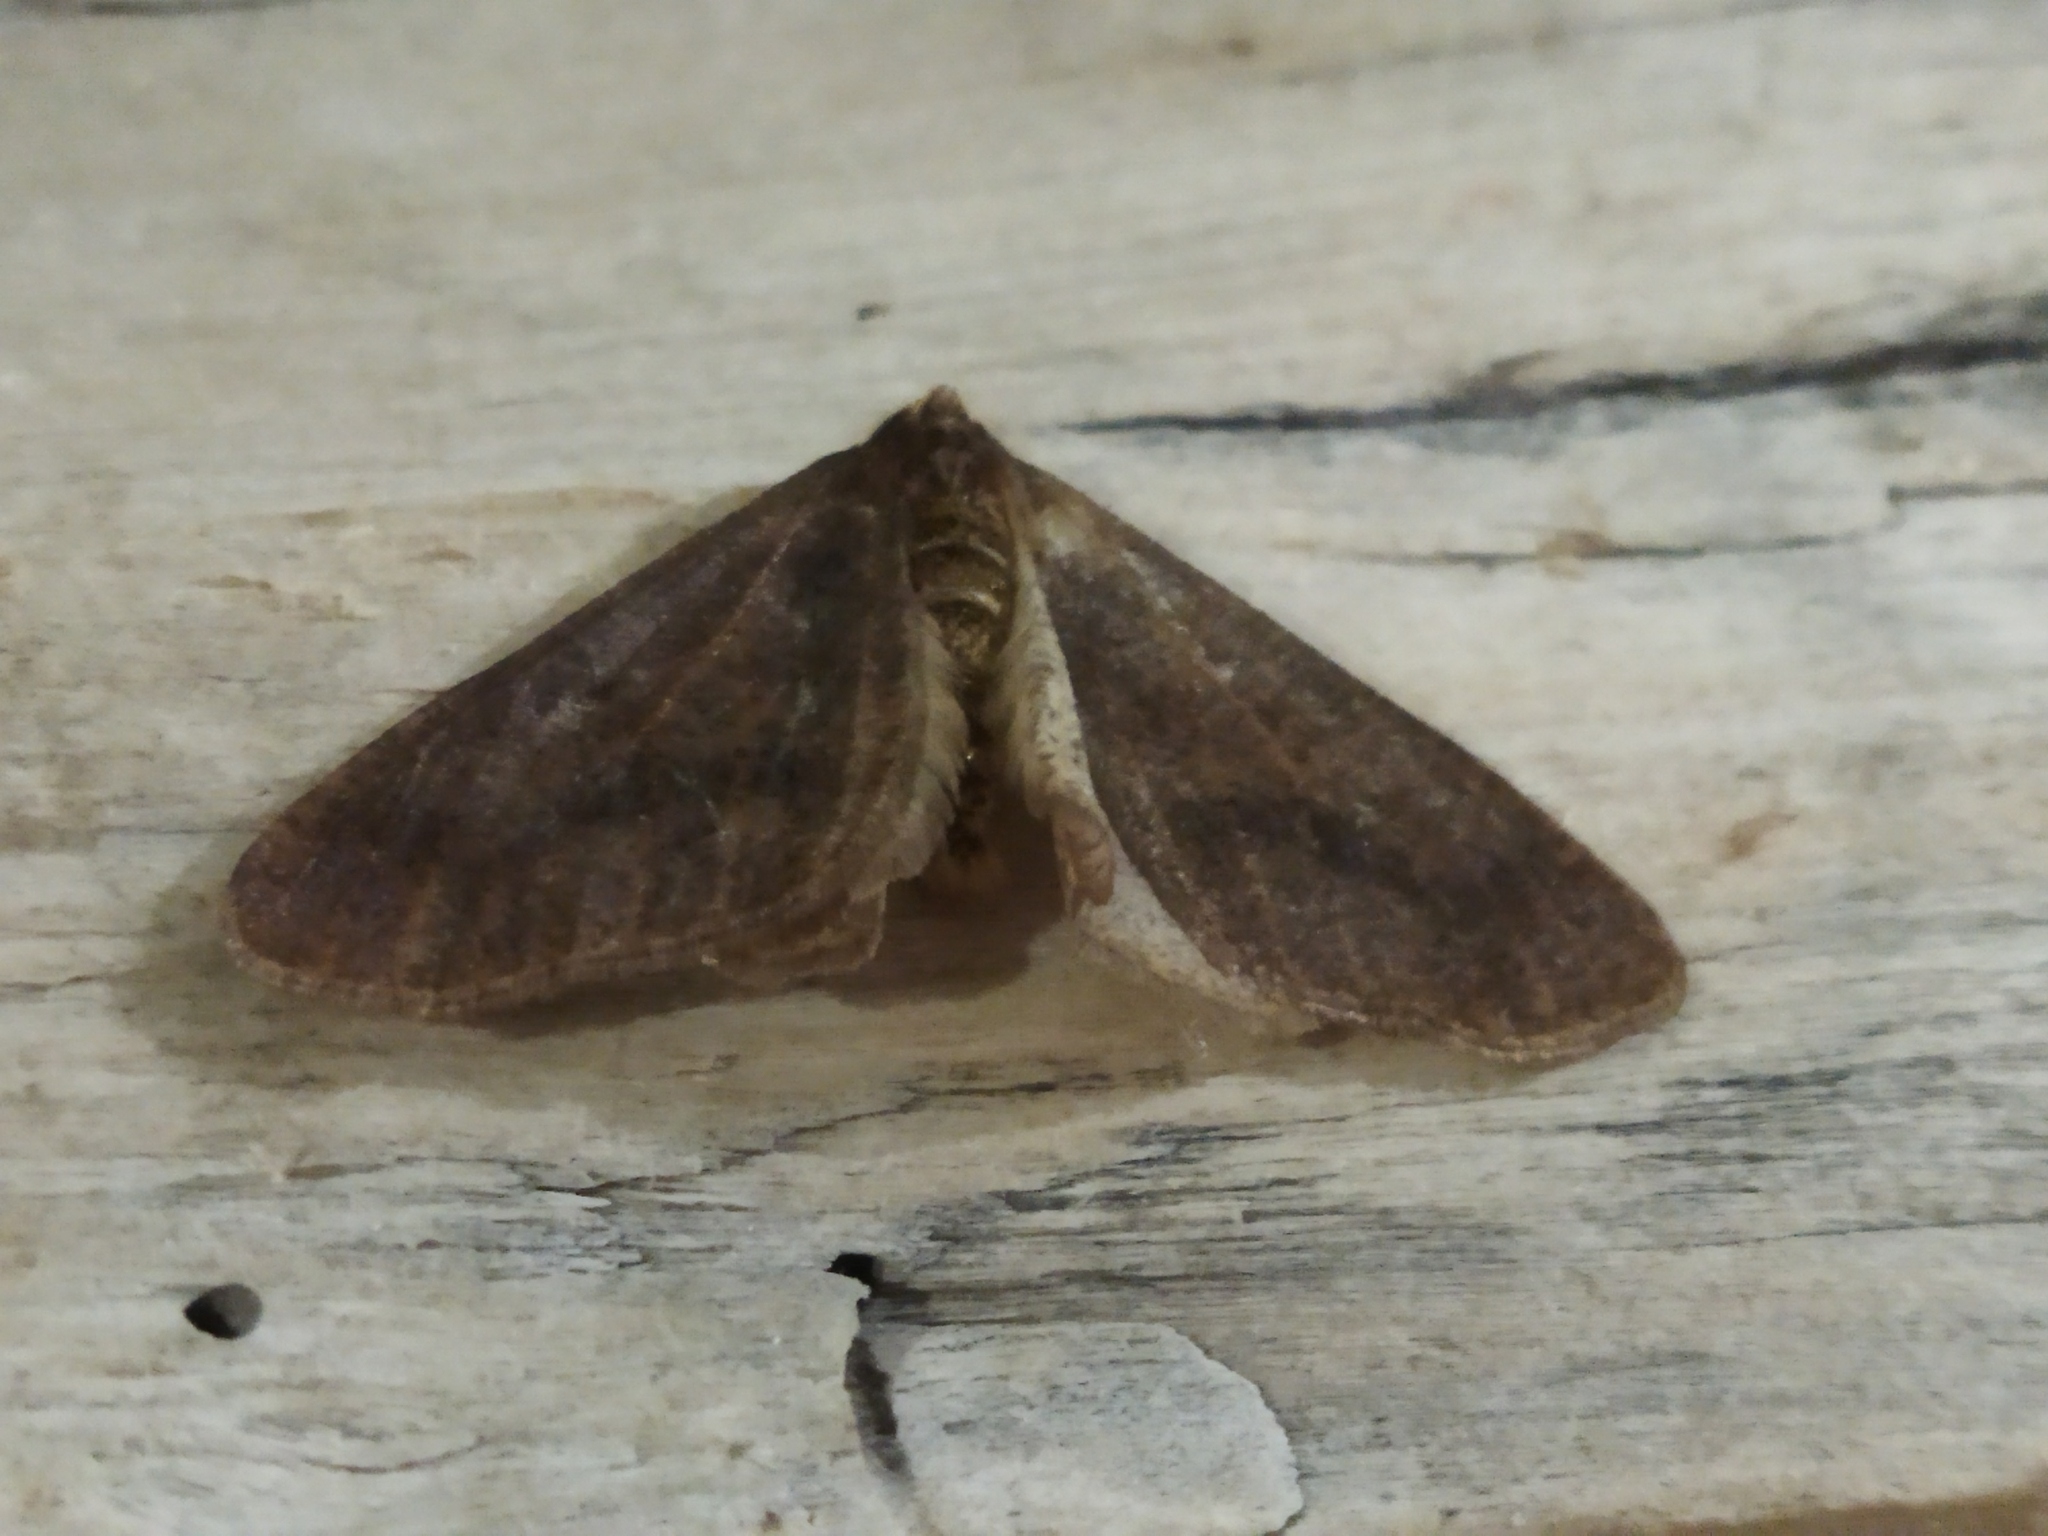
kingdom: Animalia
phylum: Arthropoda
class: Insecta
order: Lepidoptera
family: Geometridae
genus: Erannis
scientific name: Erannis defoliaria
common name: Mottled umber
